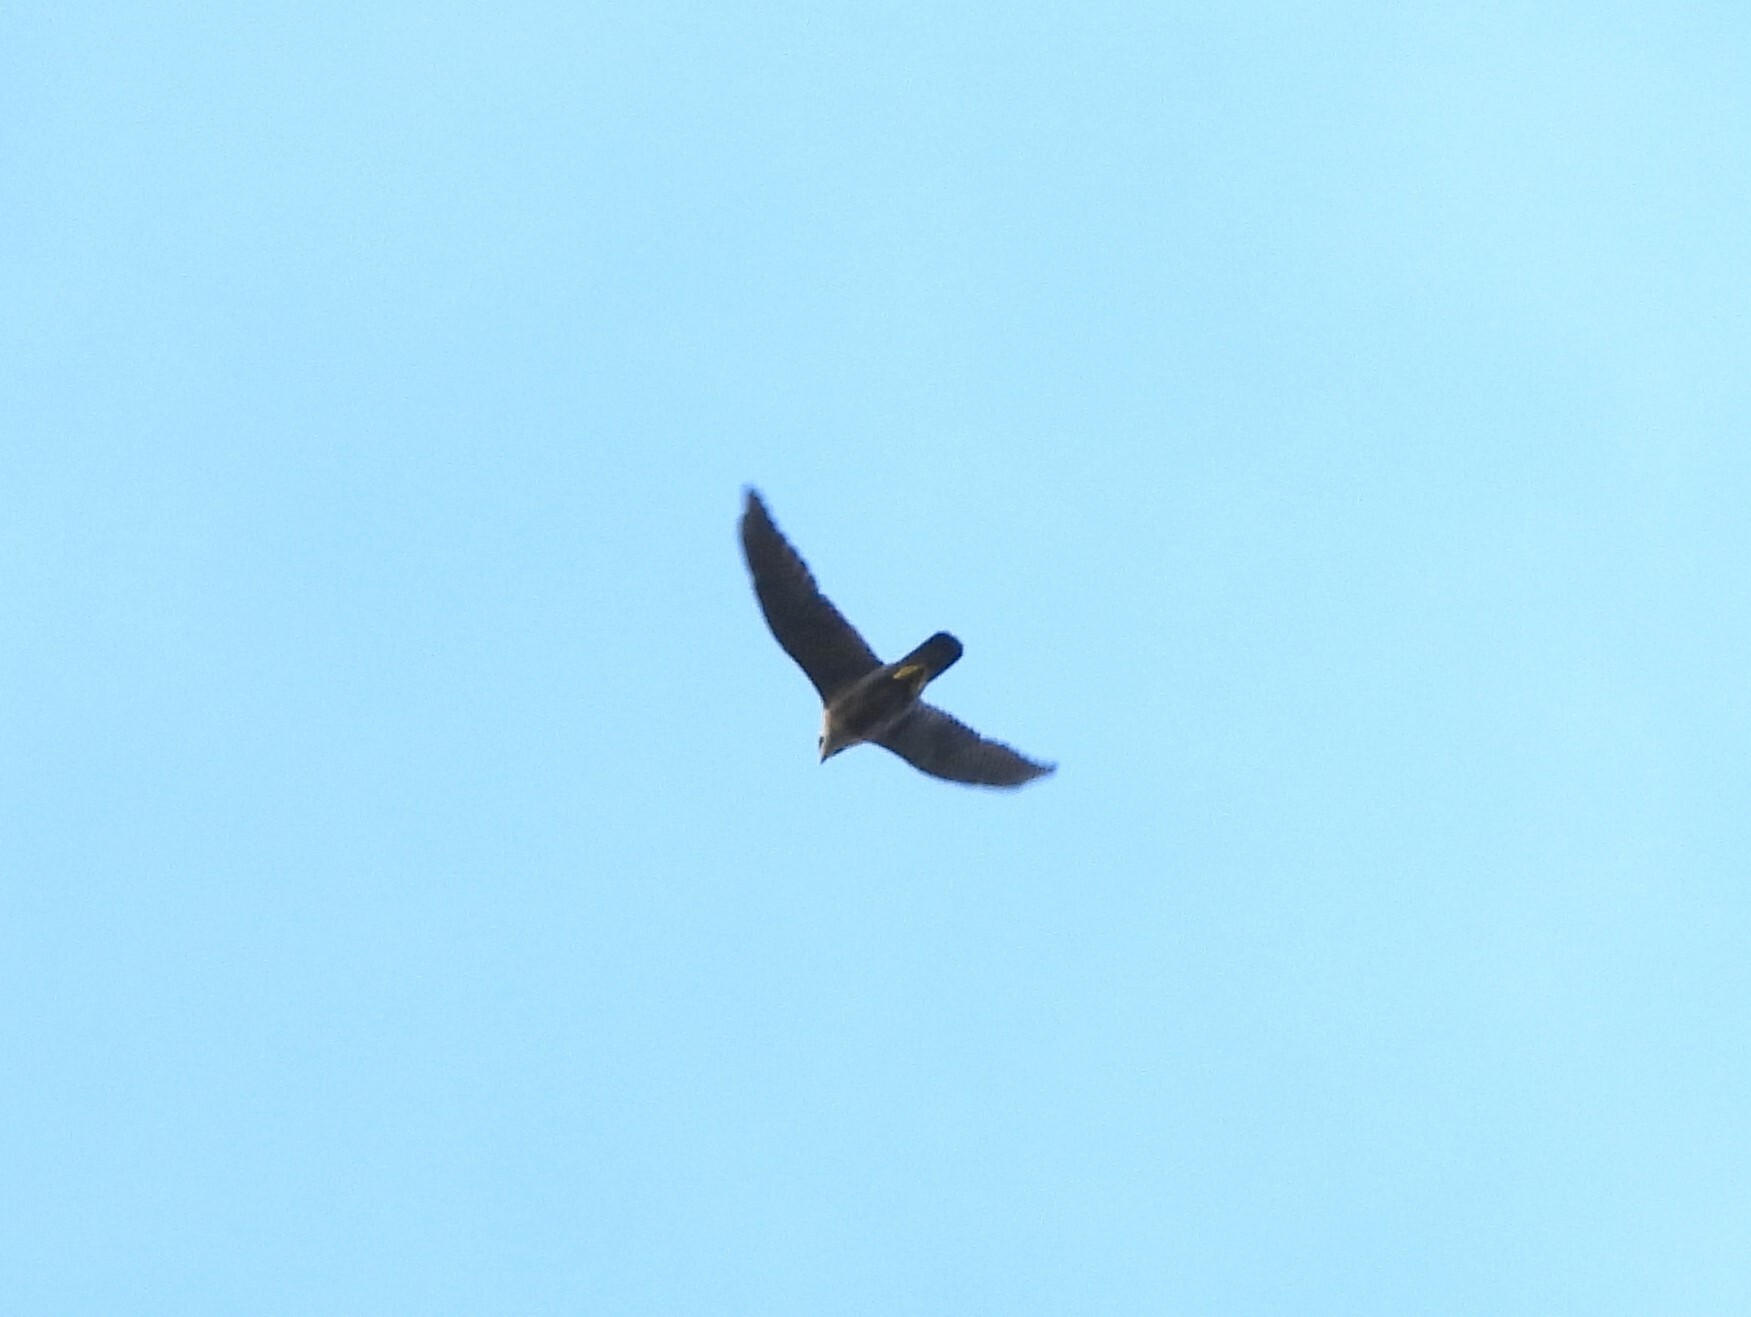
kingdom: Animalia
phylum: Chordata
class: Aves
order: Falconiformes
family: Falconidae
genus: Falco
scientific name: Falco peregrinus
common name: Peregrine falcon
